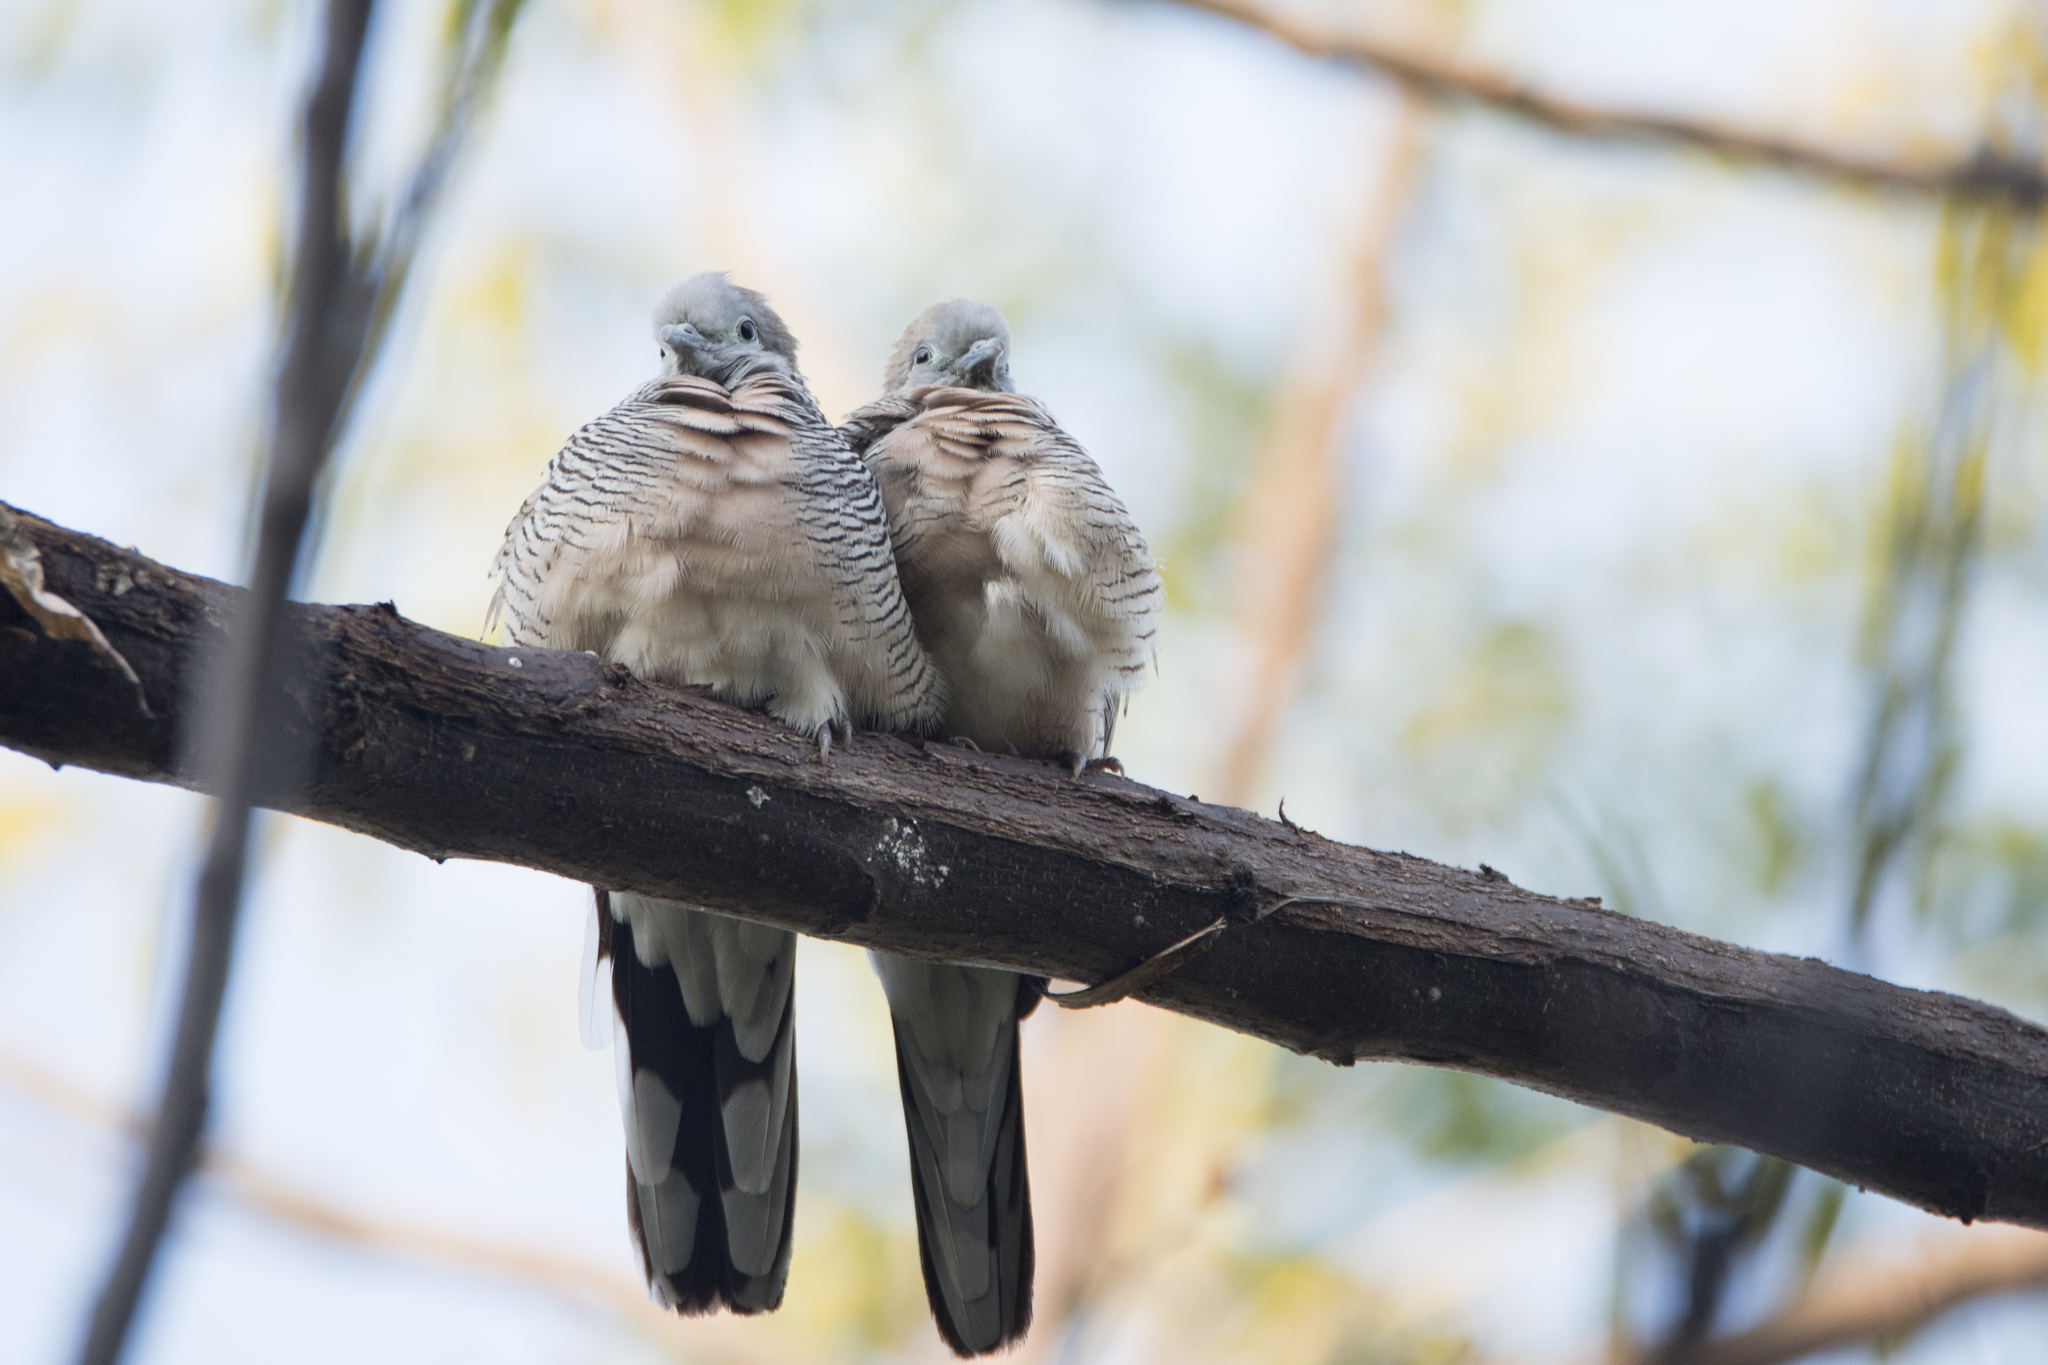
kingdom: Animalia
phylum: Chordata
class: Aves
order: Columbiformes
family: Columbidae
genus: Geopelia
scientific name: Geopelia striata
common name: Zebra dove
